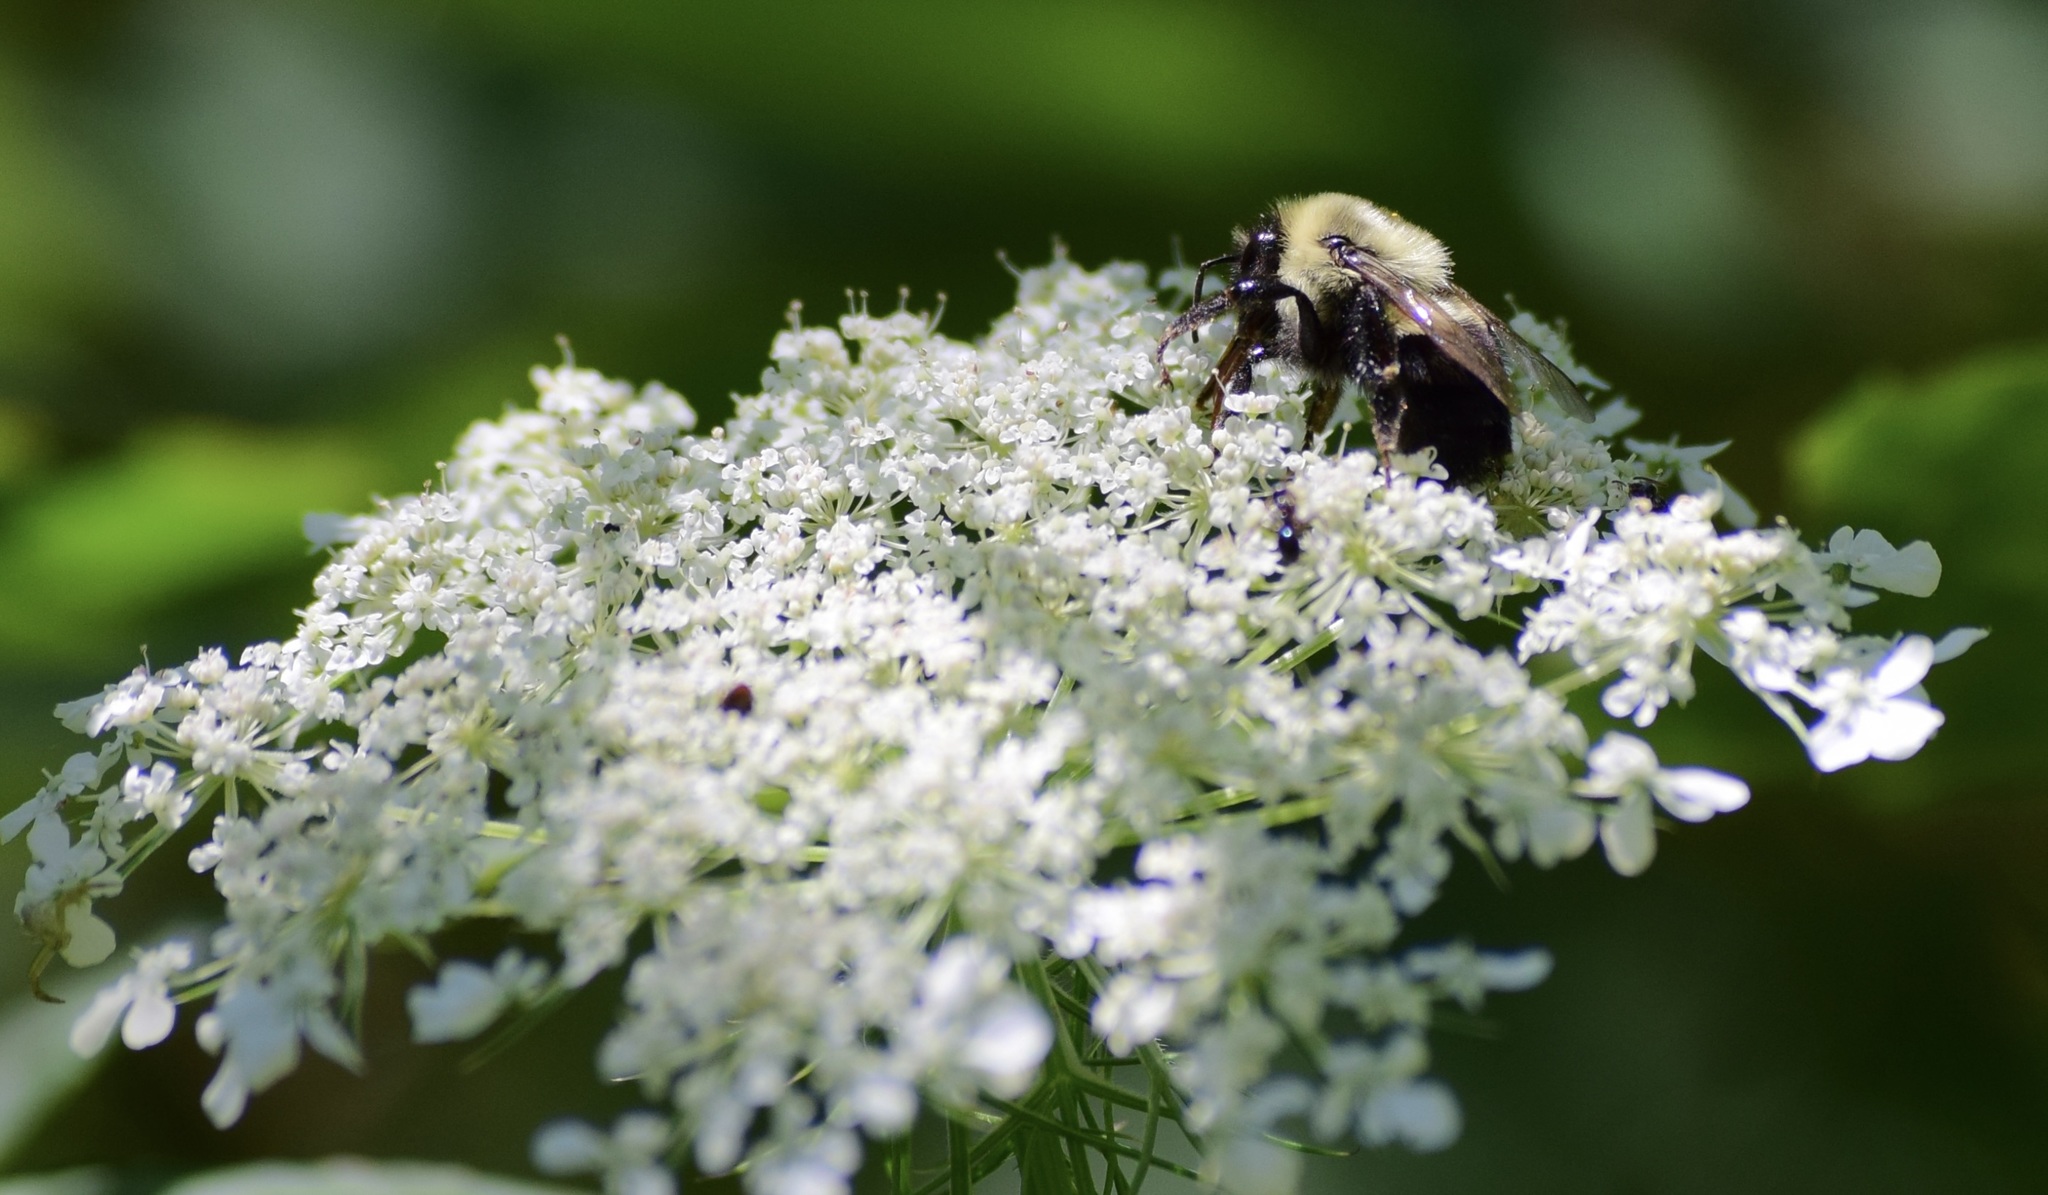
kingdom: Animalia
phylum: Arthropoda
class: Insecta
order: Hymenoptera
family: Apidae
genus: Bombus
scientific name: Bombus impatiens
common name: Common eastern bumble bee
